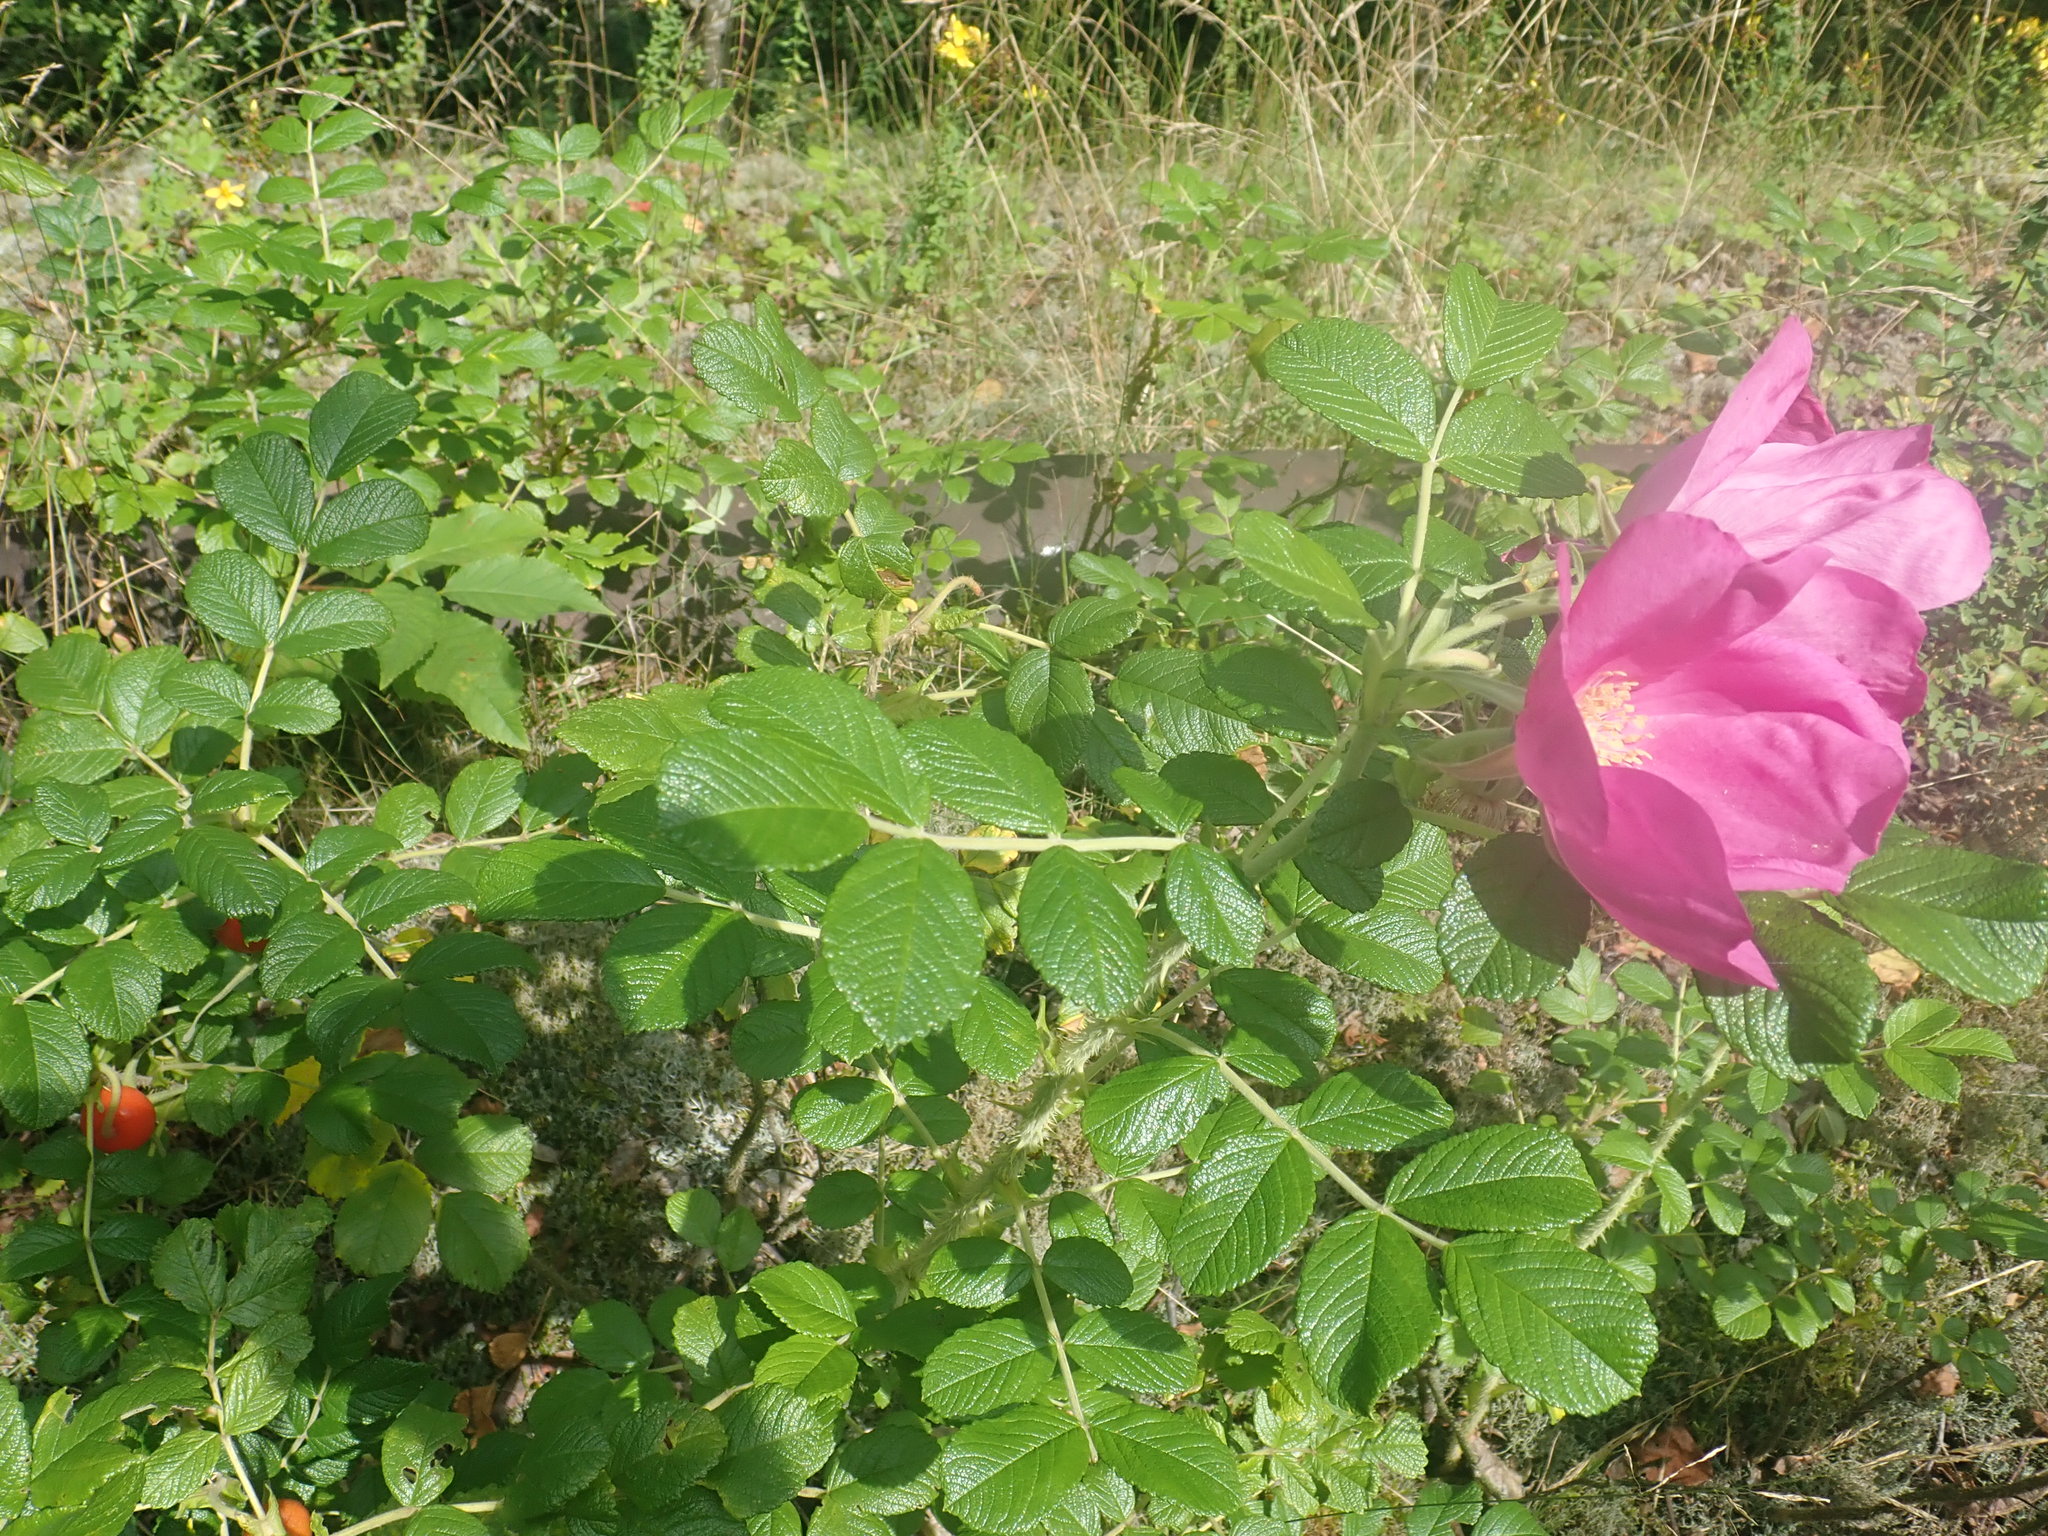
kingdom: Plantae
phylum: Tracheophyta
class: Magnoliopsida
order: Rosales
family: Rosaceae
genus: Rosa
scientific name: Rosa rugosa
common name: Japanese rose
